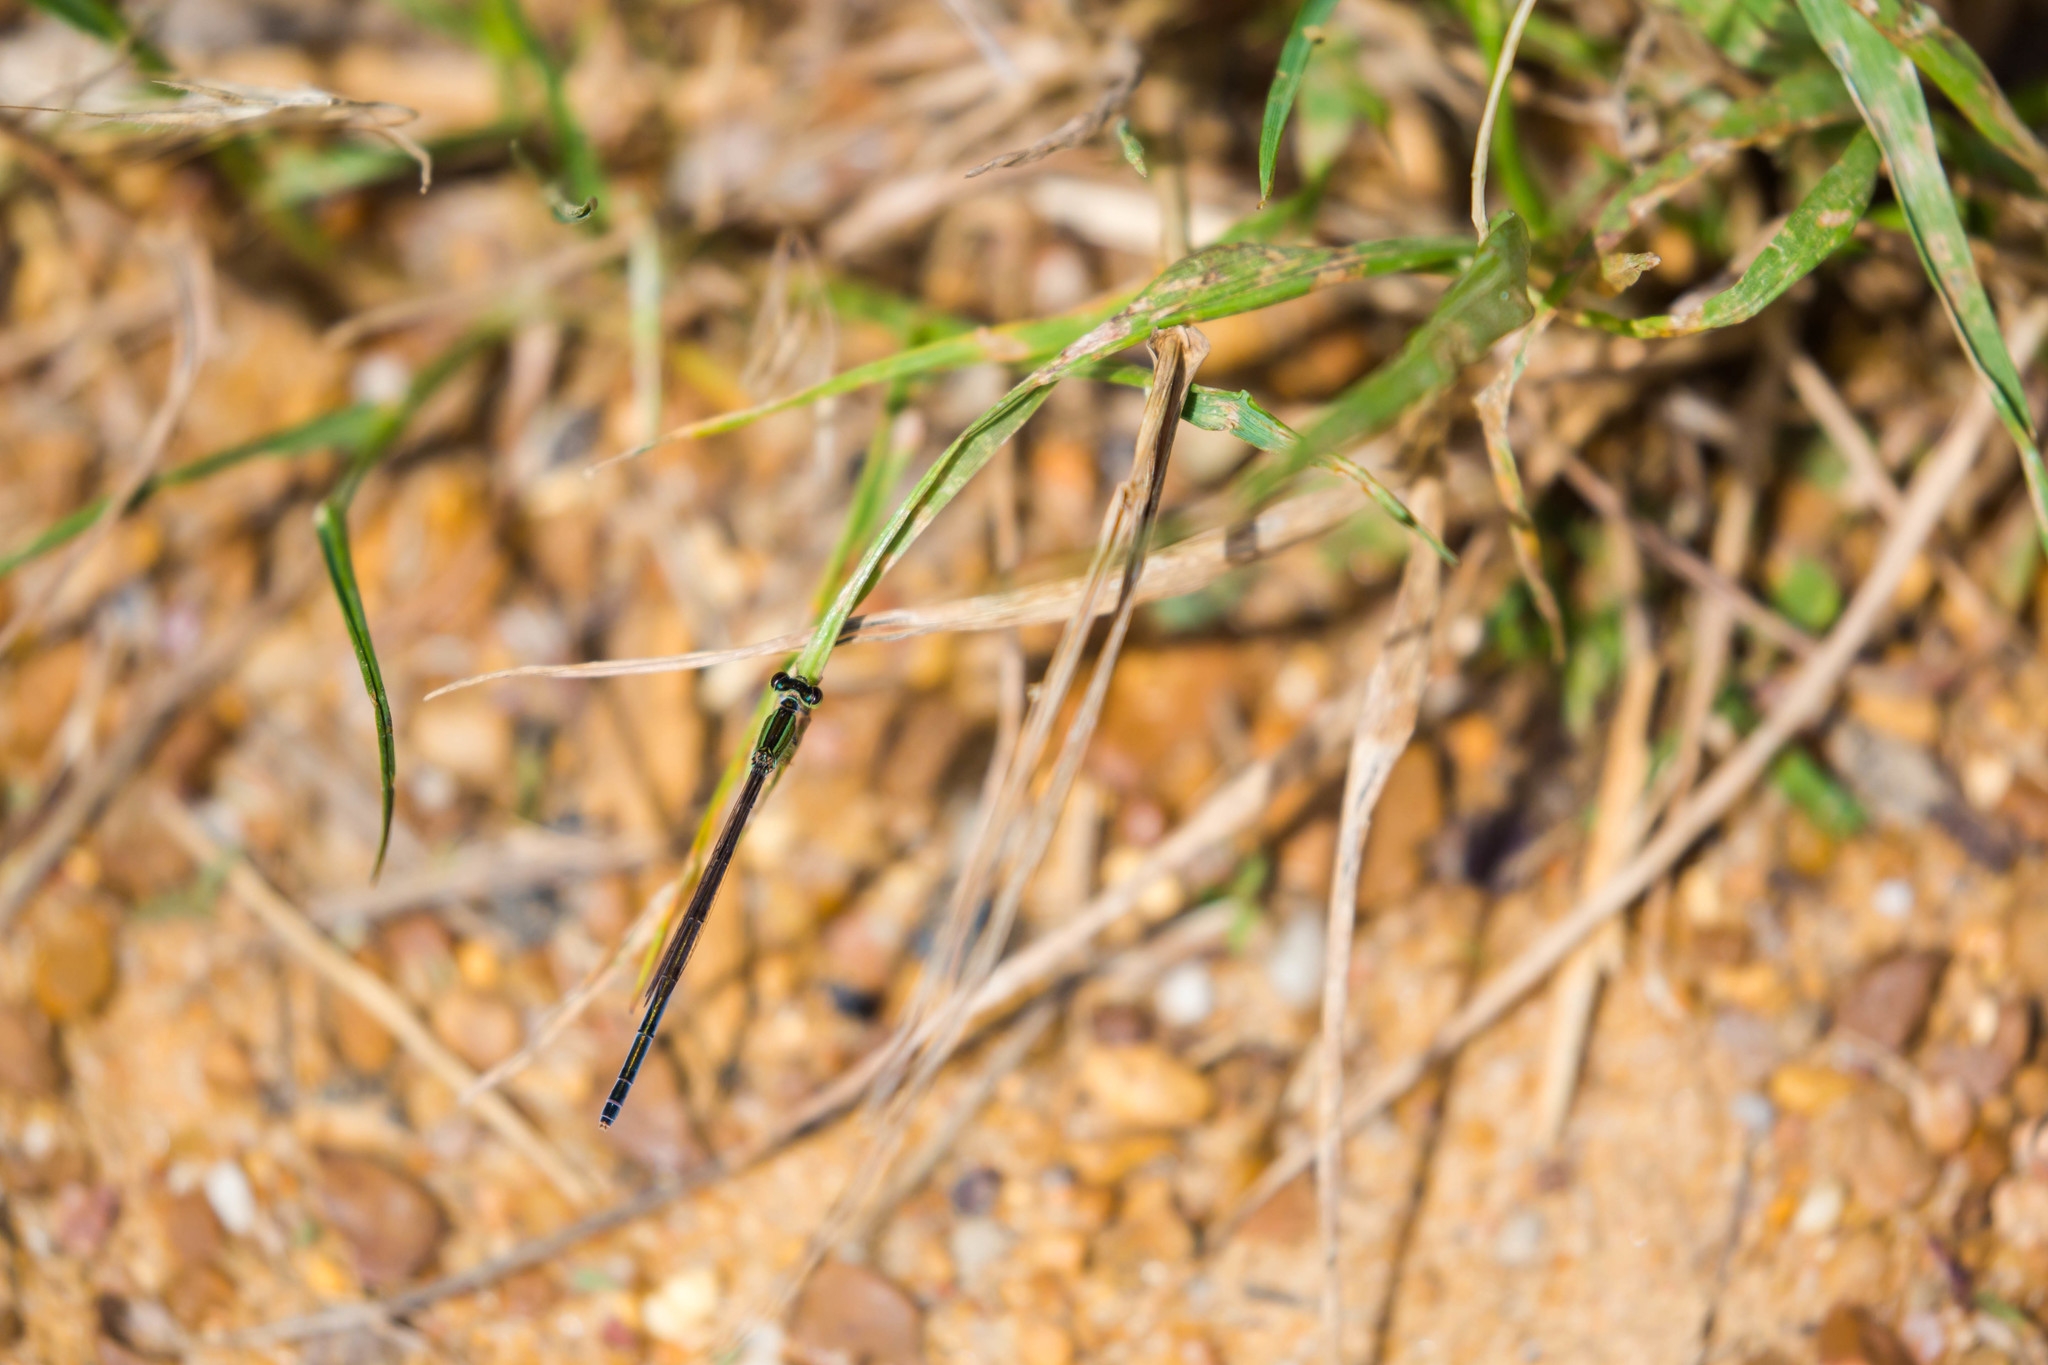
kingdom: Animalia
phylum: Arthropoda
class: Insecta
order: Odonata
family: Coenagrionidae
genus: Ischnura
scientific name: Ischnura hastata
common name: Citrine forktail
